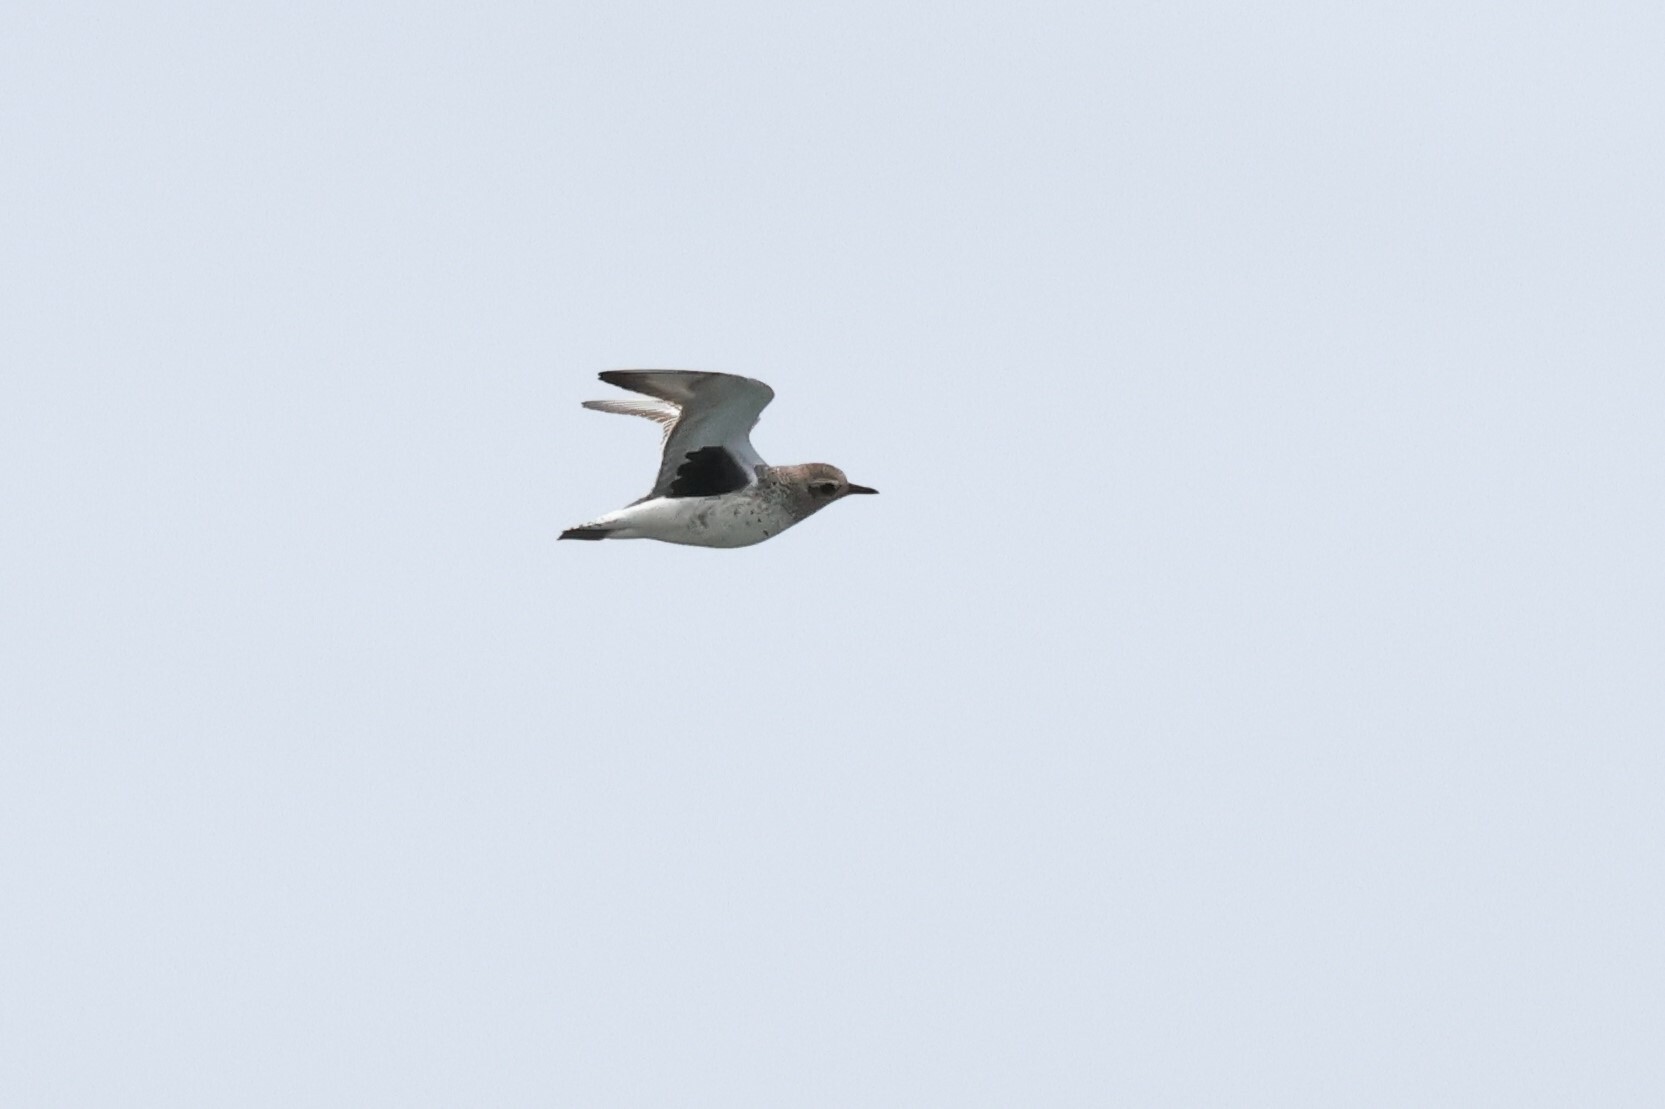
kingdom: Animalia
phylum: Chordata
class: Aves
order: Charadriiformes
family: Charadriidae
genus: Pluvialis
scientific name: Pluvialis squatarola
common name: Grey plover
